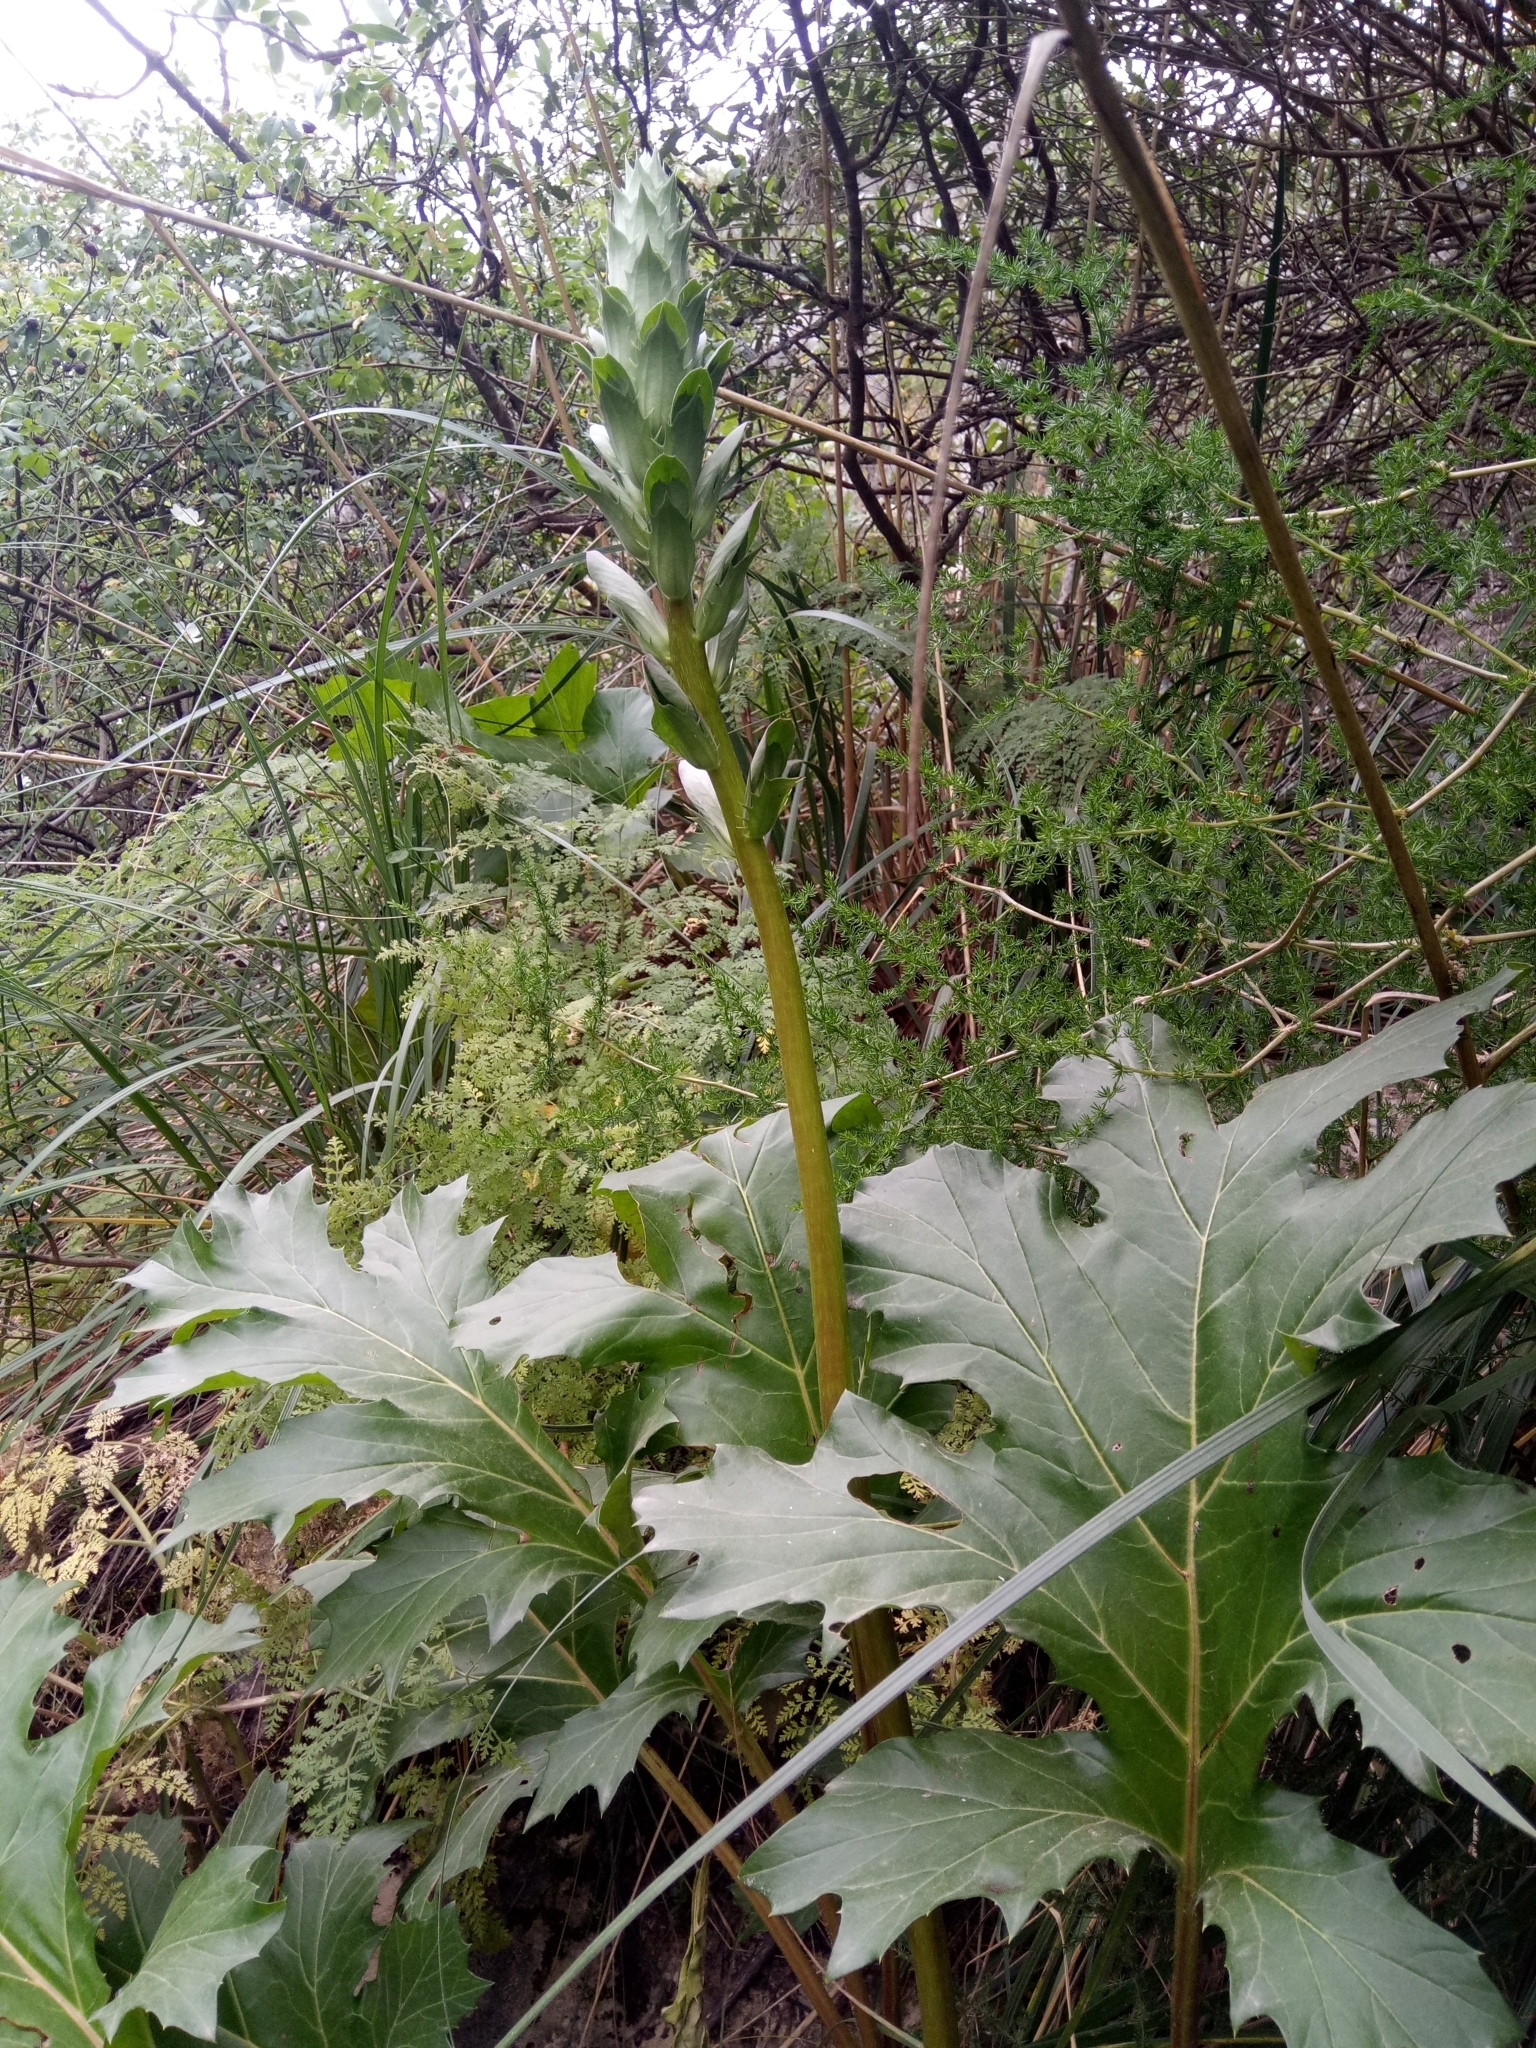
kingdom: Plantae
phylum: Tracheophyta
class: Magnoliopsida
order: Lamiales
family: Acanthaceae
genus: Acanthus
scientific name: Acanthus mollis
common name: Bear's-breech
